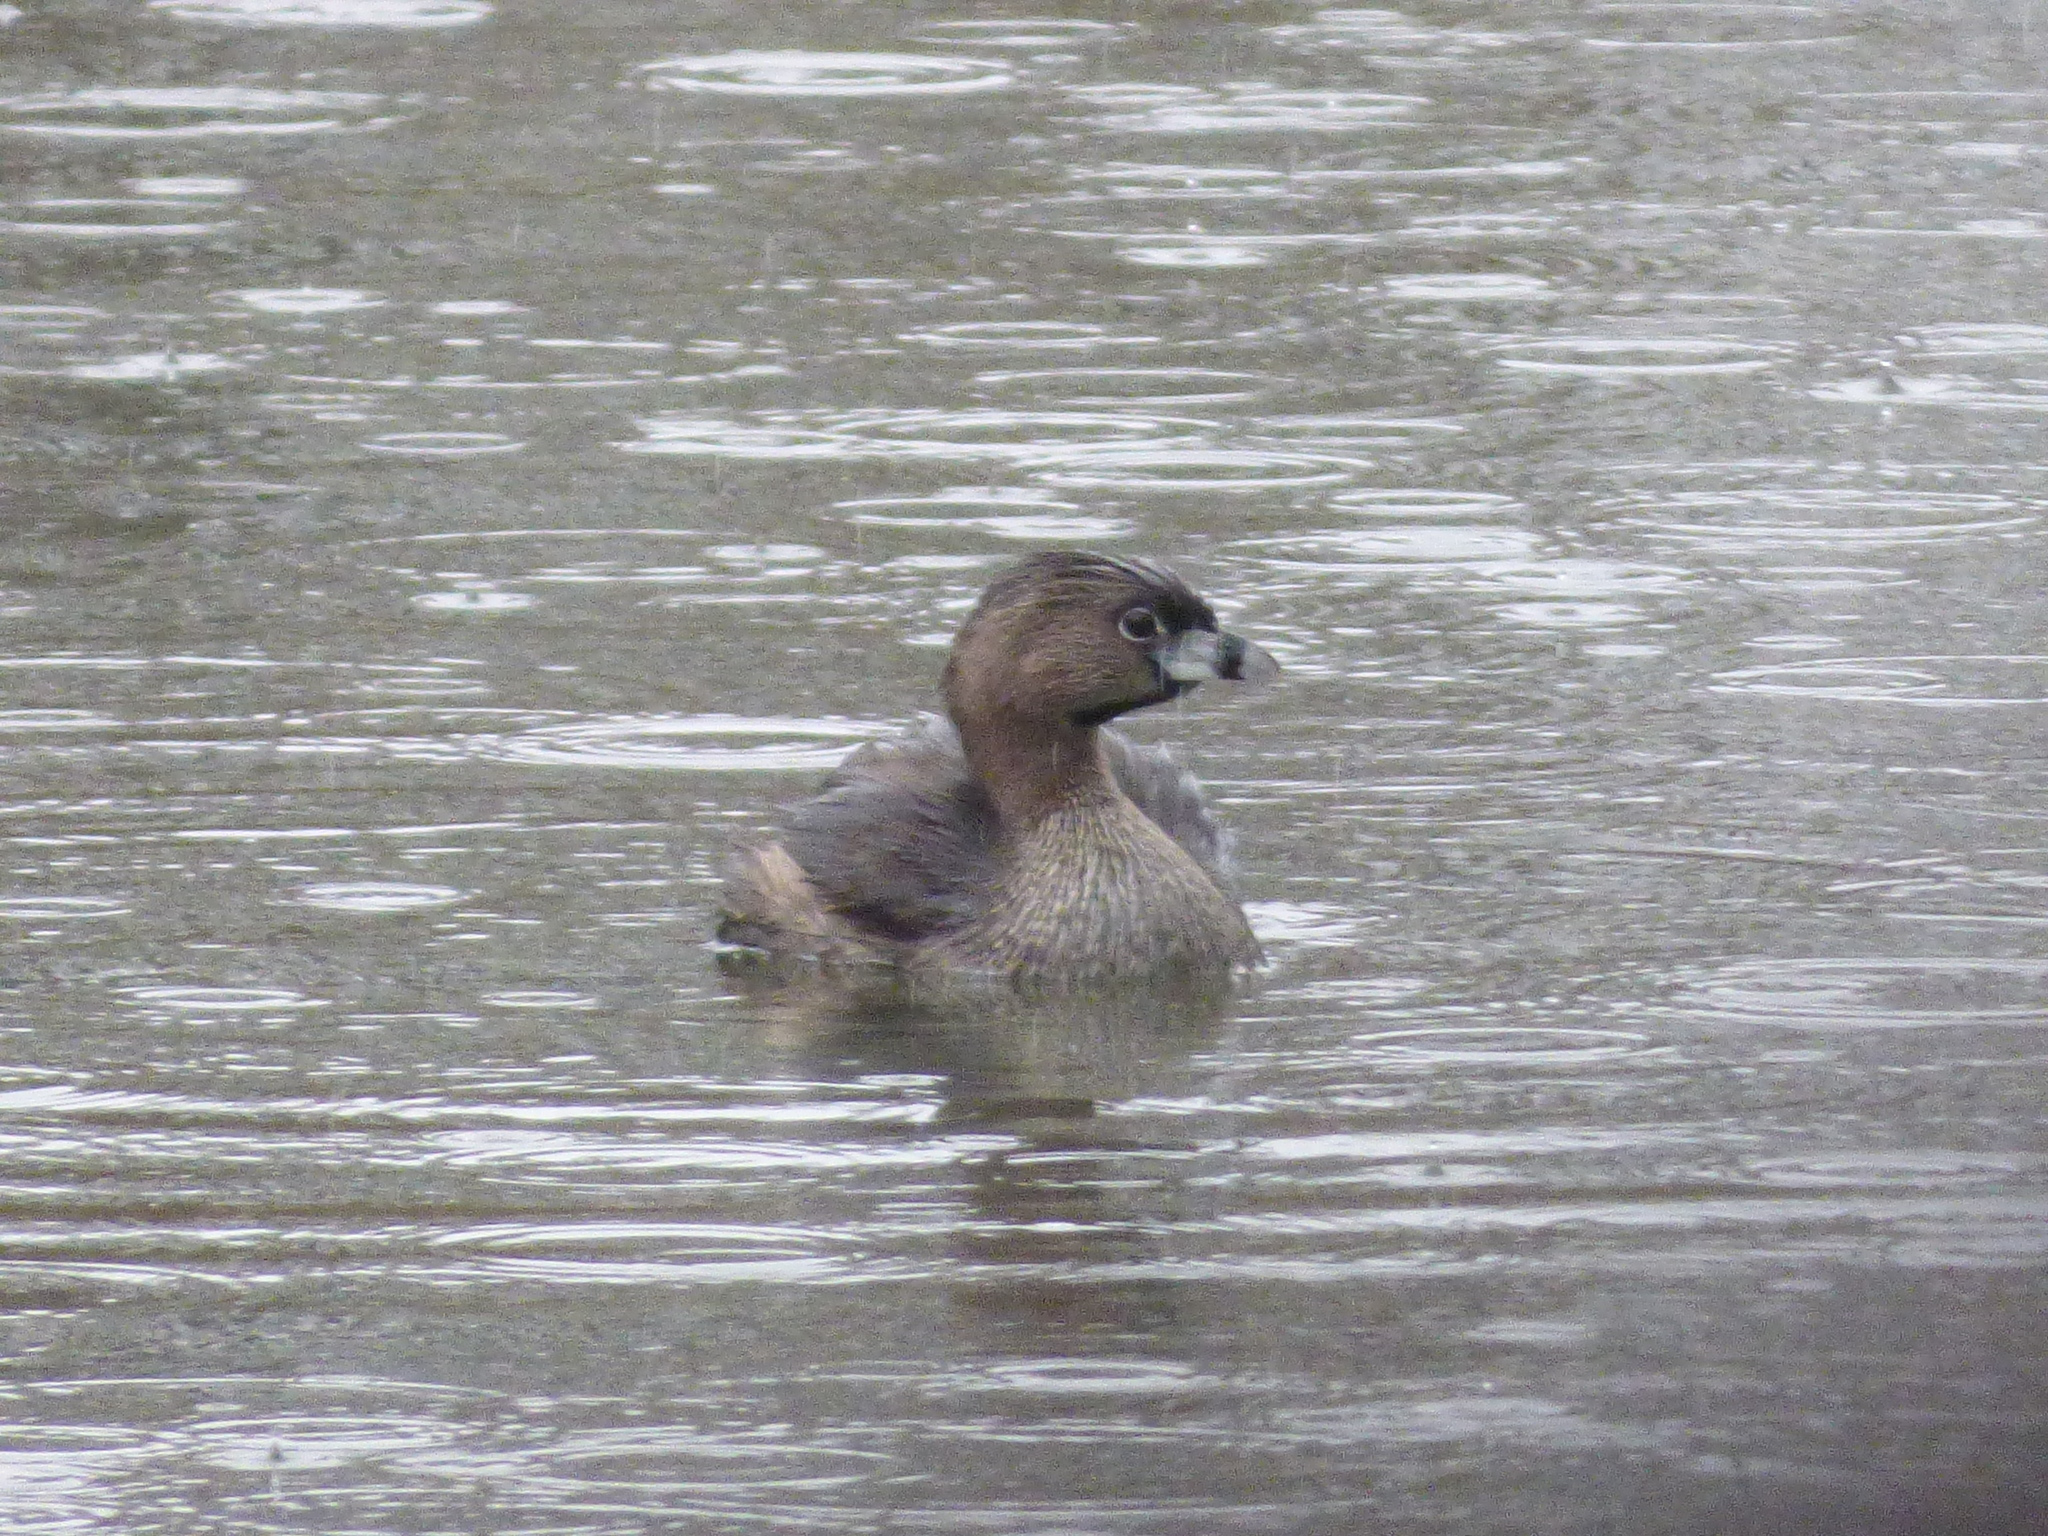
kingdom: Animalia
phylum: Chordata
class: Aves
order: Podicipediformes
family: Podicipedidae
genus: Podilymbus
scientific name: Podilymbus podiceps
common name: Pied-billed grebe
